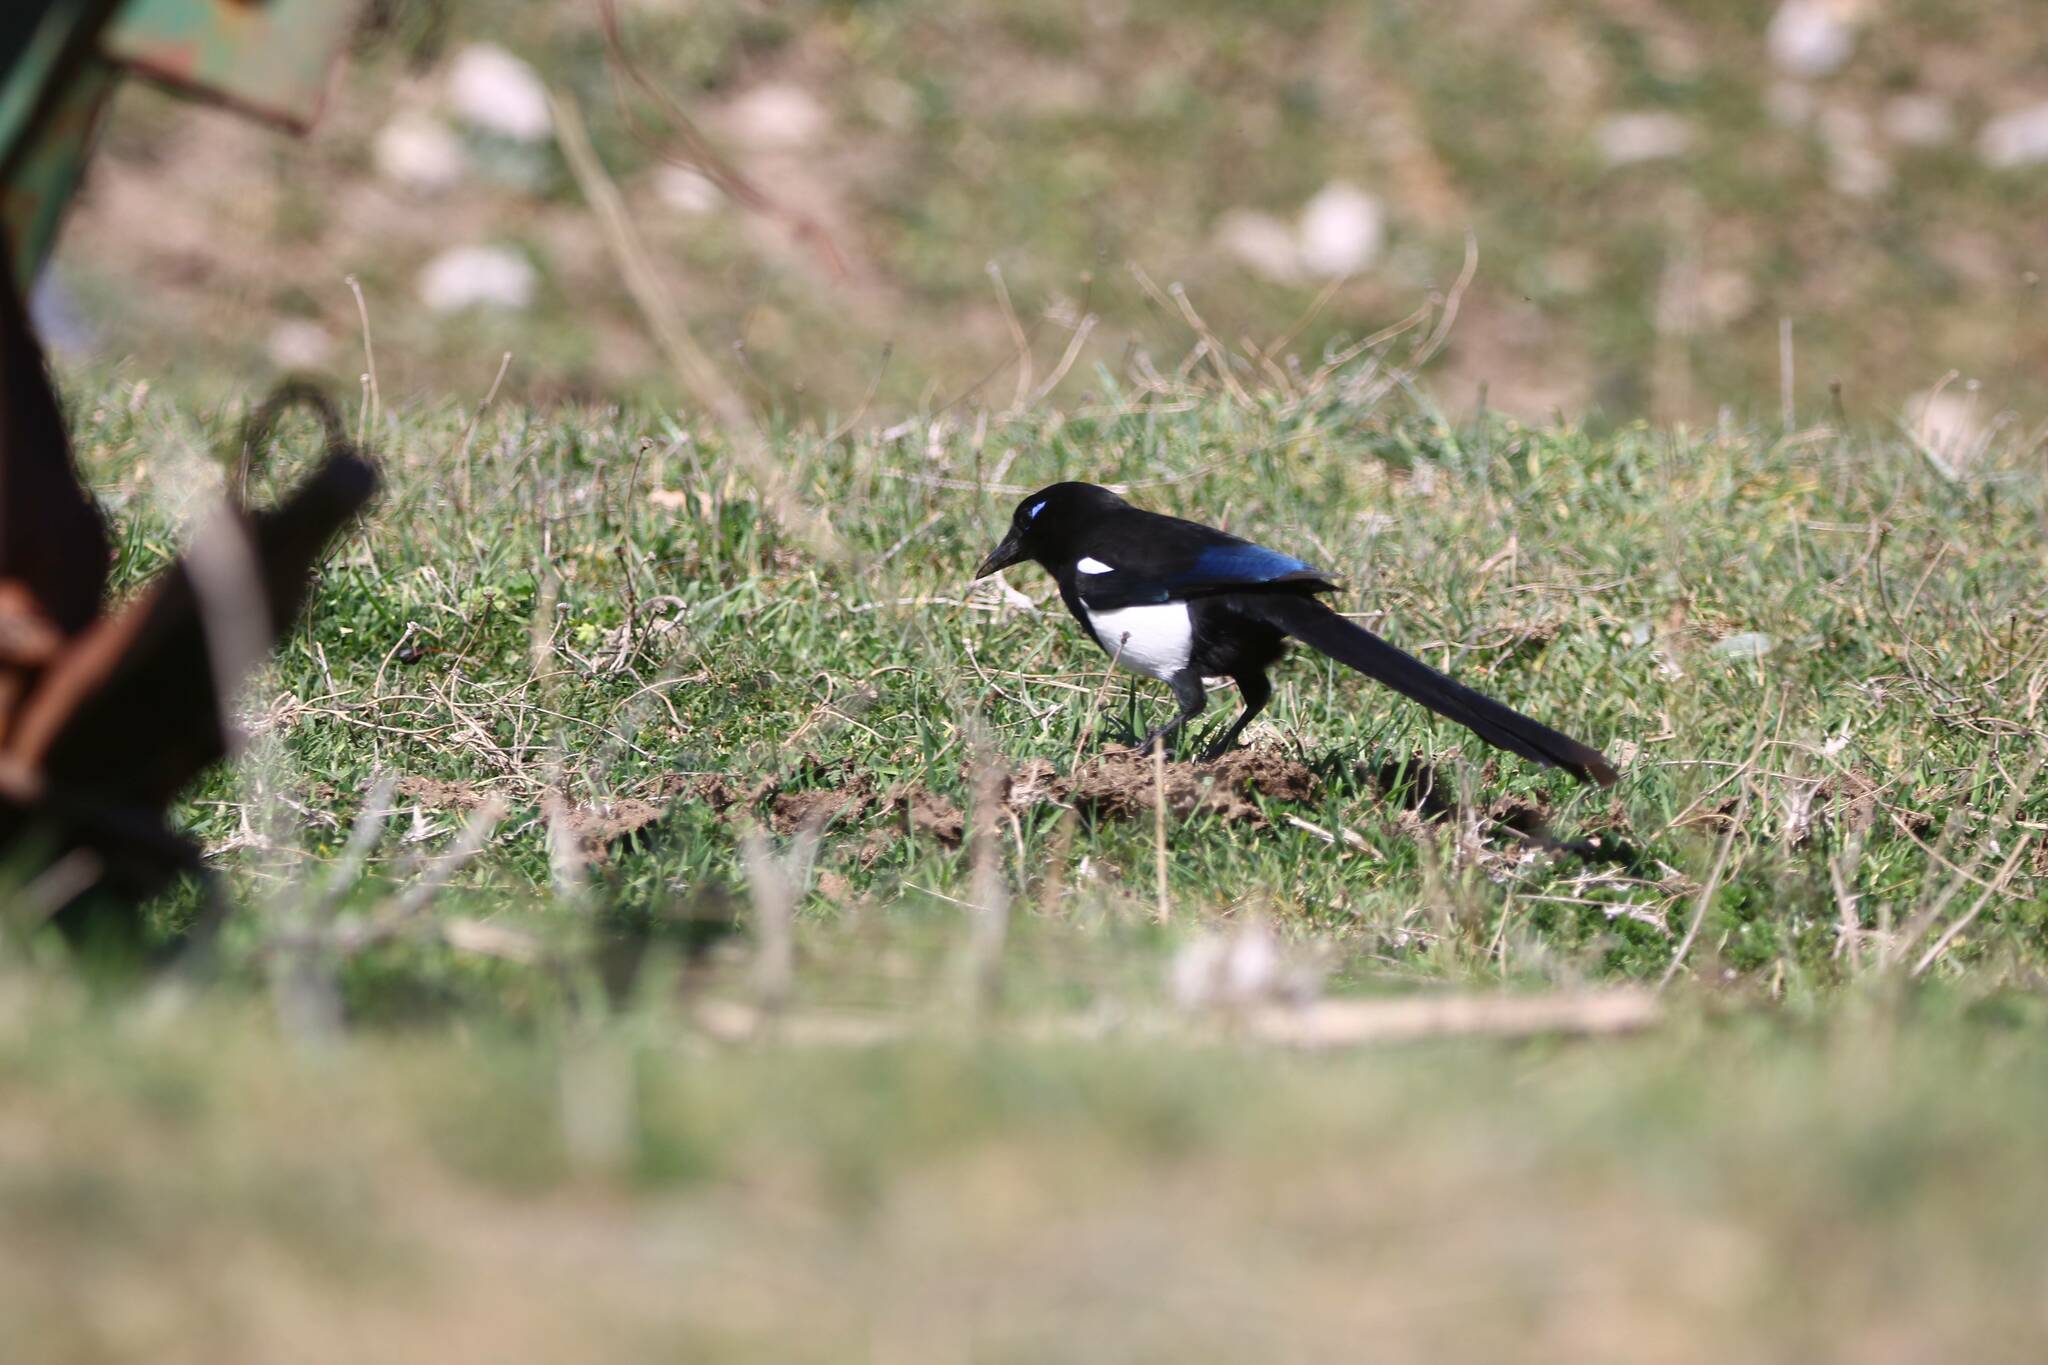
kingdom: Animalia
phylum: Chordata
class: Aves
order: Passeriformes
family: Corvidae
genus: Pica
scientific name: Pica mauritanica
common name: Maghreb magpie
